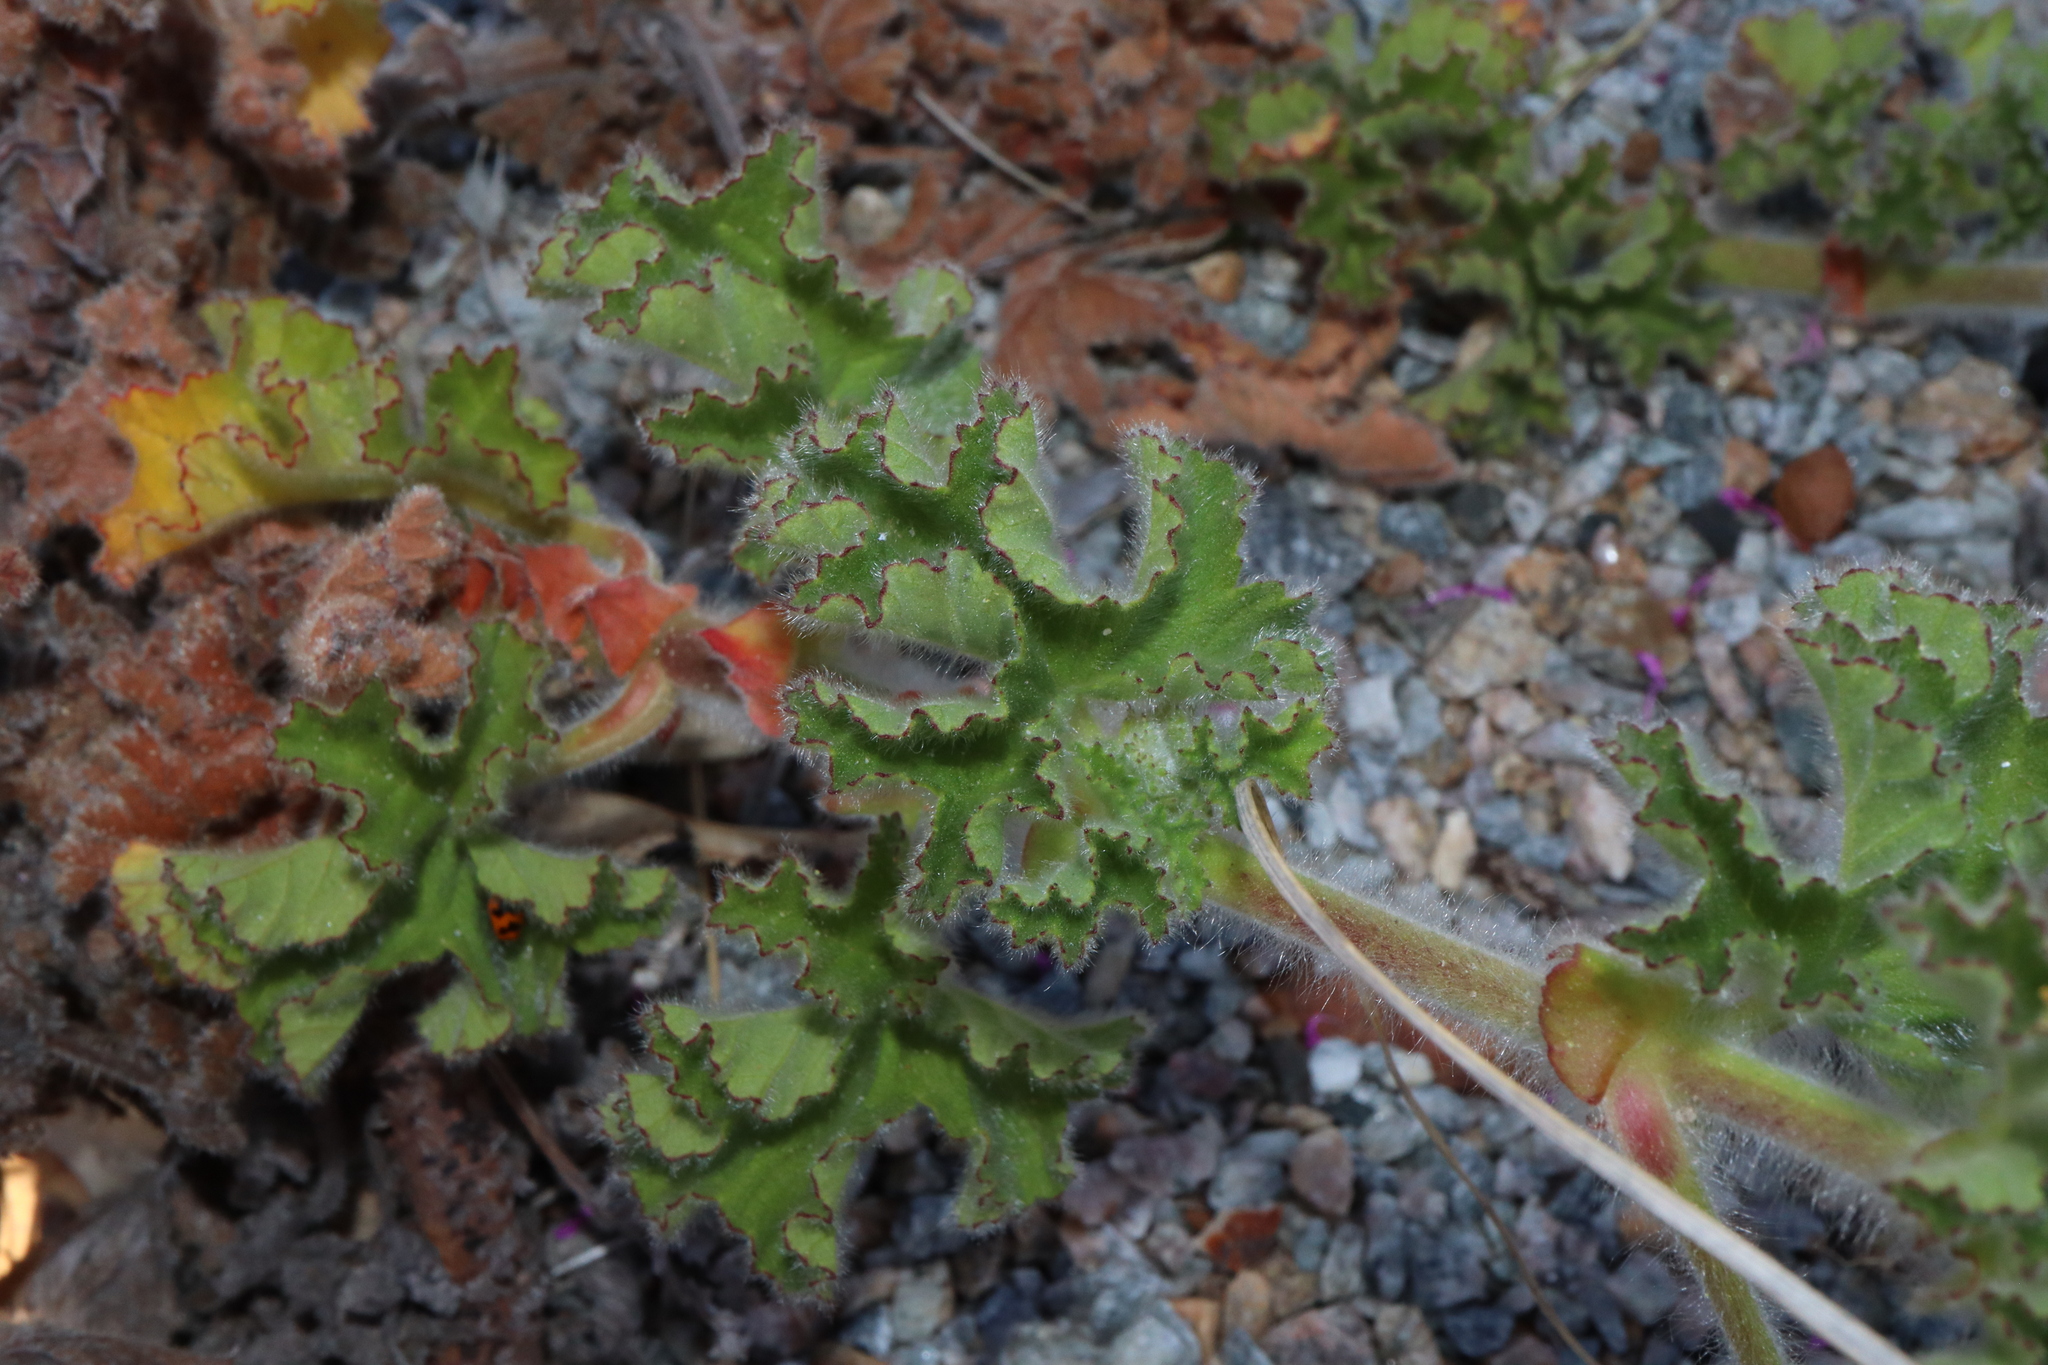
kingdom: Plantae
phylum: Tracheophyta
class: Magnoliopsida
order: Geraniales
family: Geraniaceae
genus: Pelargonium
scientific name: Pelargonium capitatum
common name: Rose scented geranium
